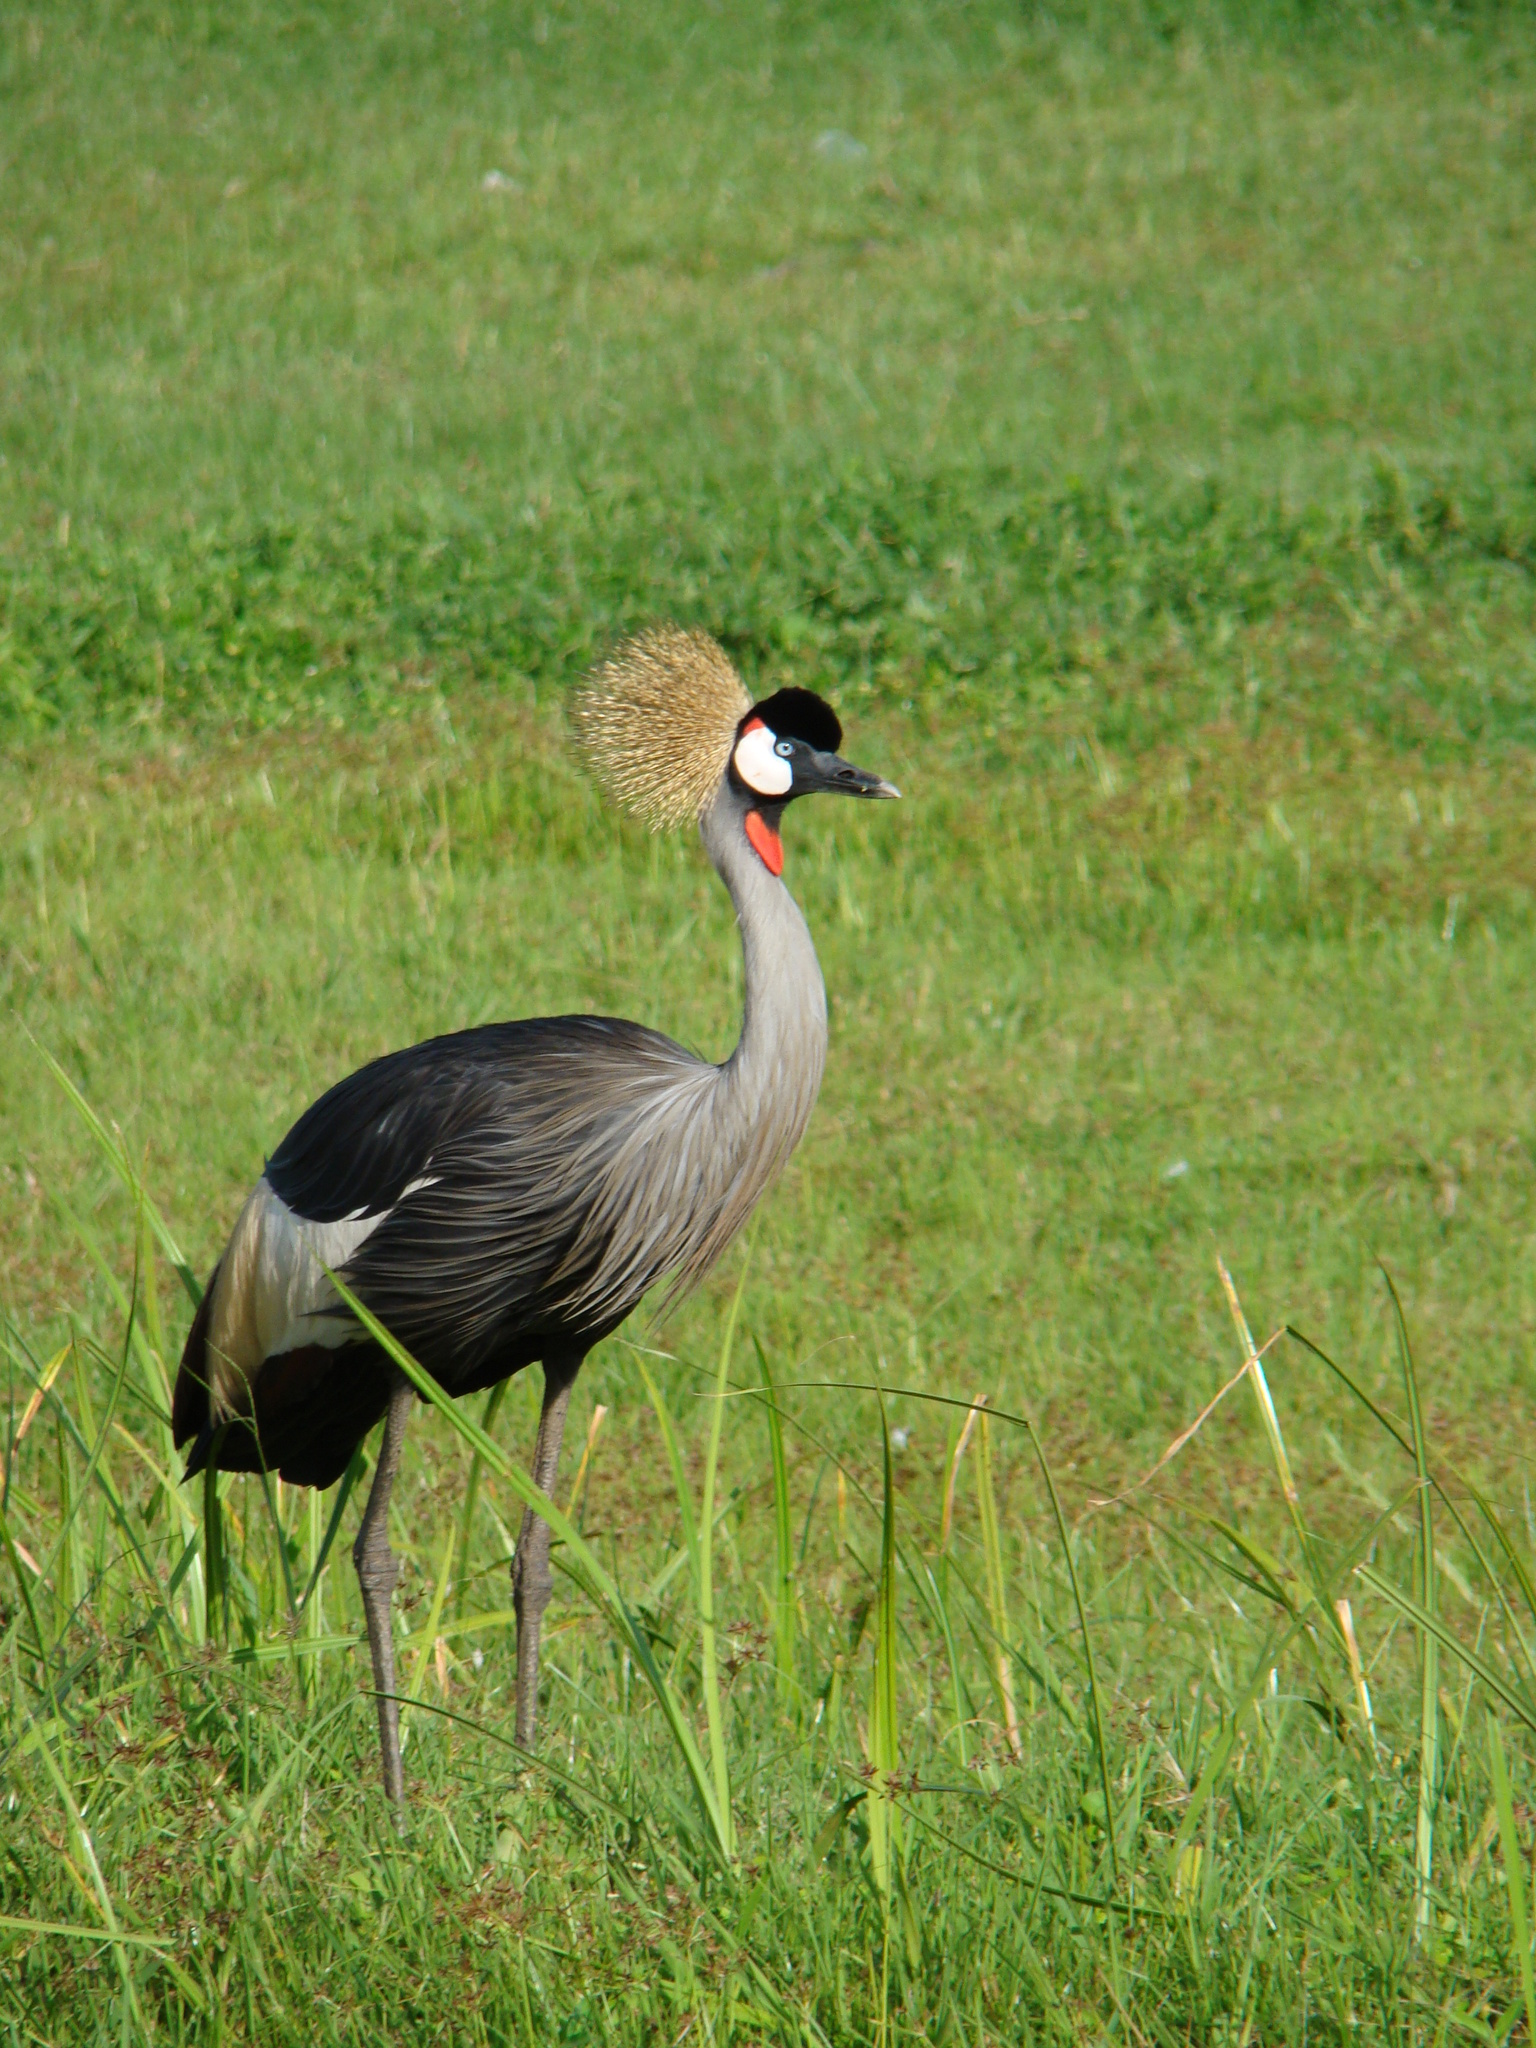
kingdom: Animalia
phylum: Chordata
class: Aves
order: Gruiformes
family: Gruidae
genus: Balearica
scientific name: Balearica regulorum
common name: Grey crowned crane
